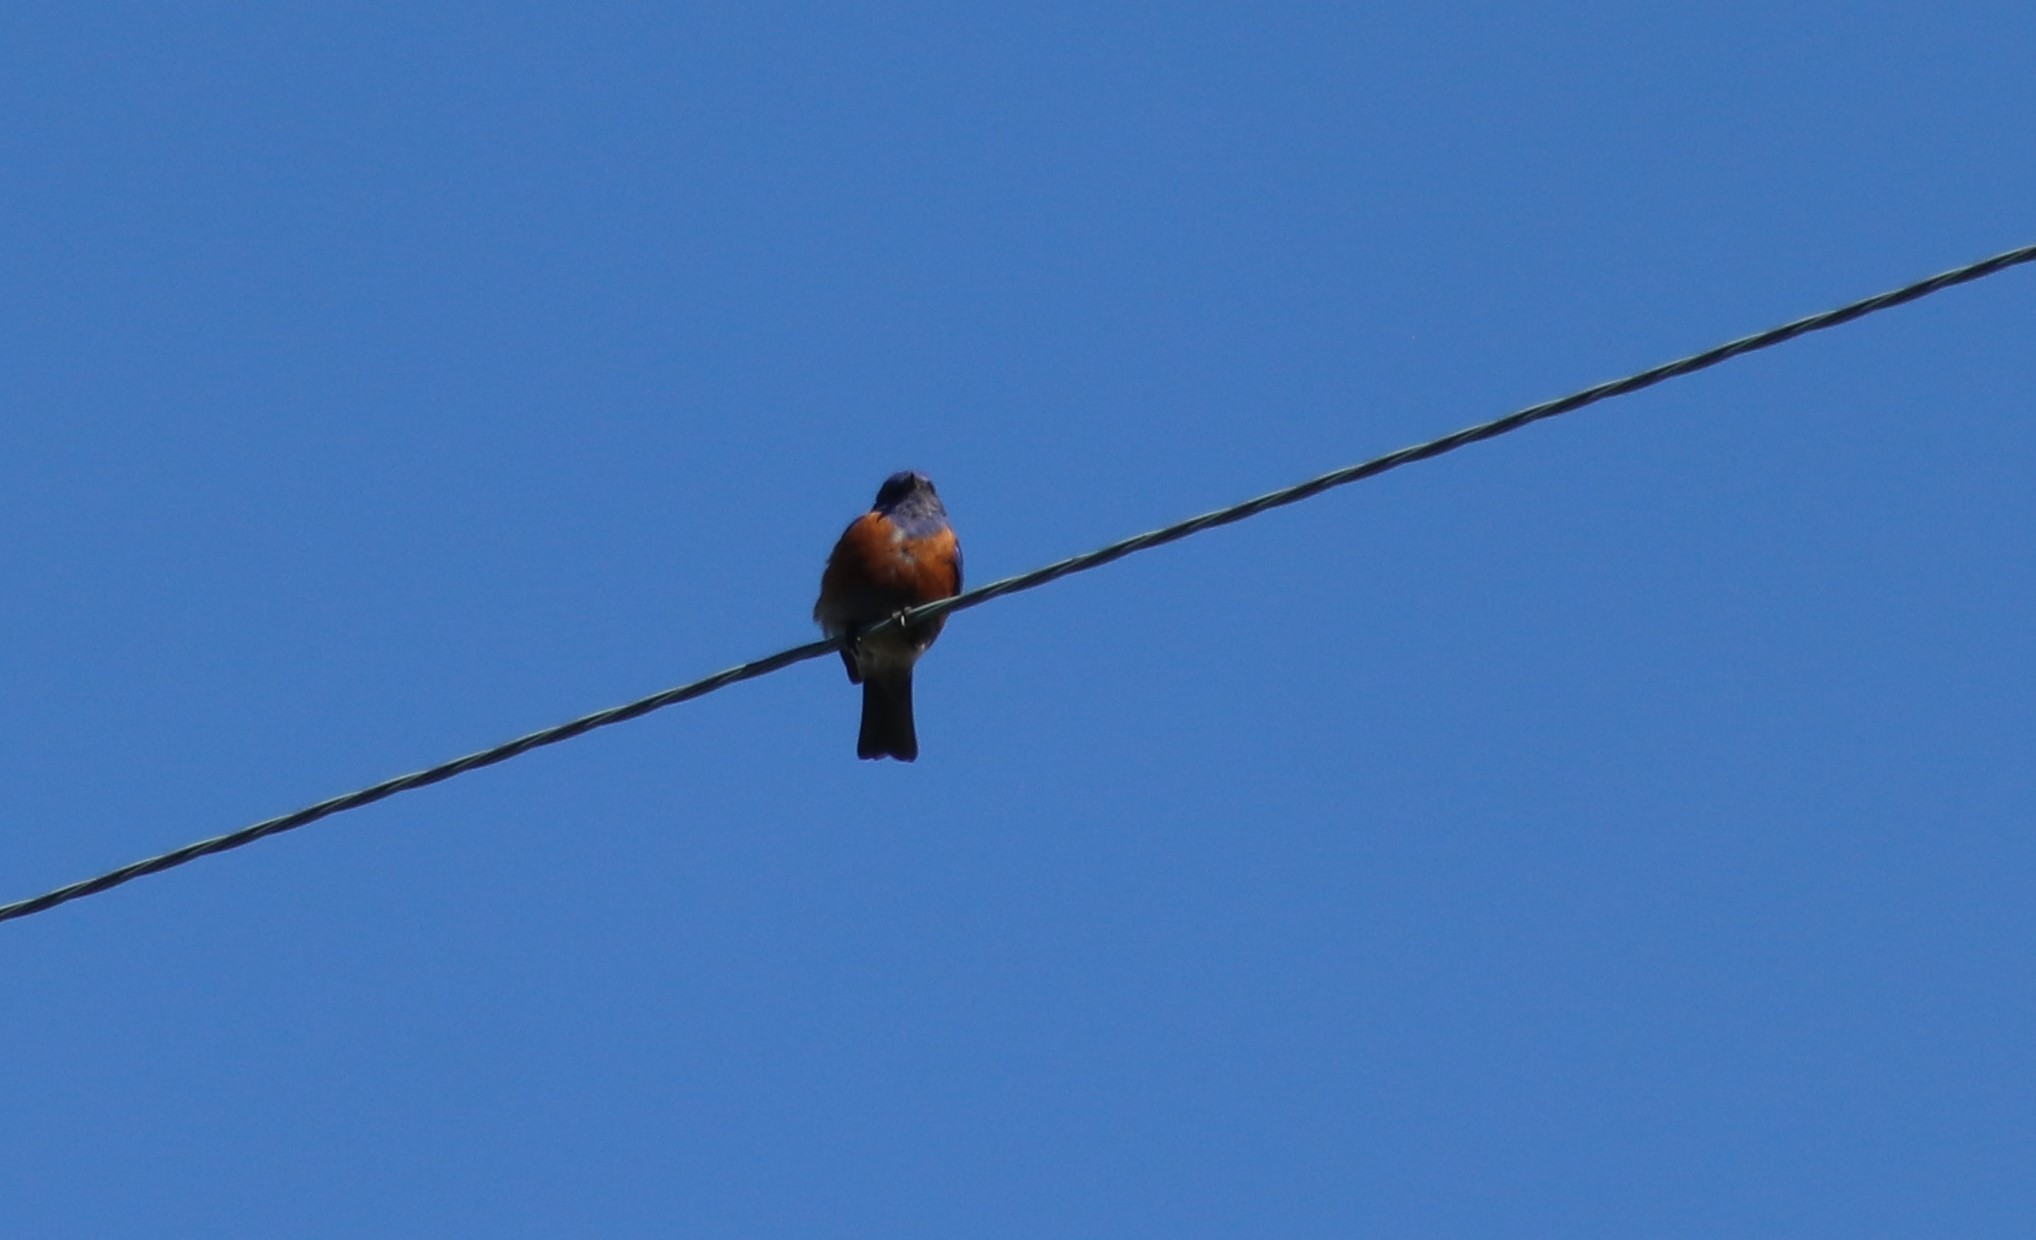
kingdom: Animalia
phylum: Chordata
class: Aves
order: Passeriformes
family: Turdidae
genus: Sialia
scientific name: Sialia mexicana
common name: Western bluebird
